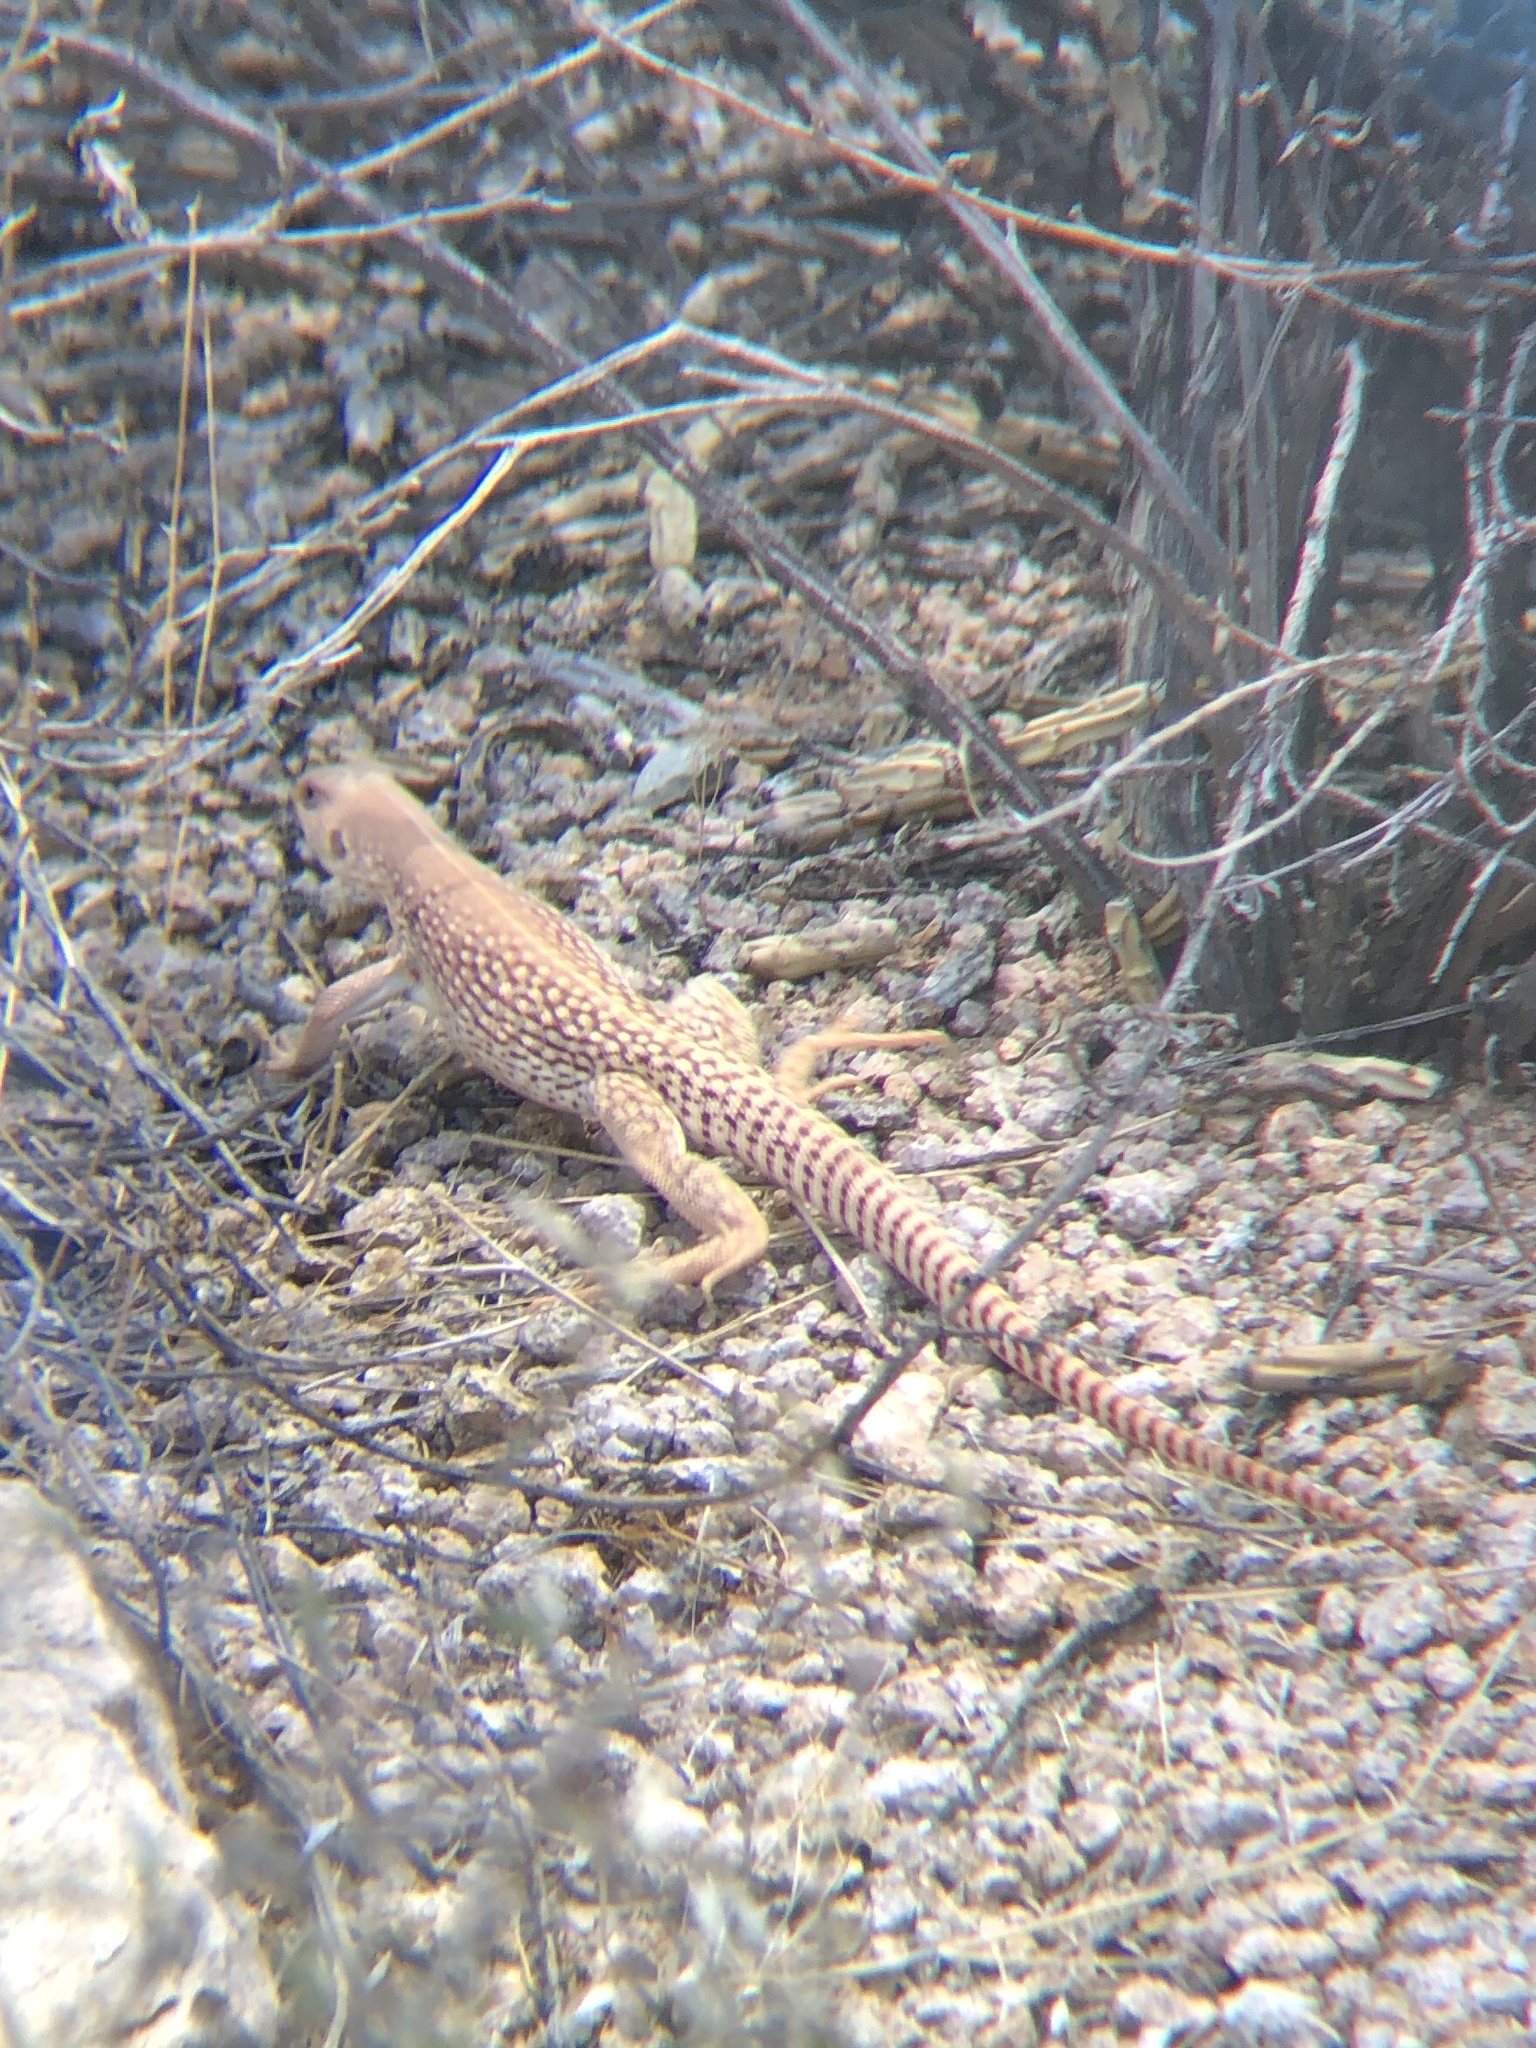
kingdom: Animalia
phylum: Chordata
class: Squamata
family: Iguanidae
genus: Dipsosaurus
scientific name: Dipsosaurus dorsalis
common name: Desert iguana
